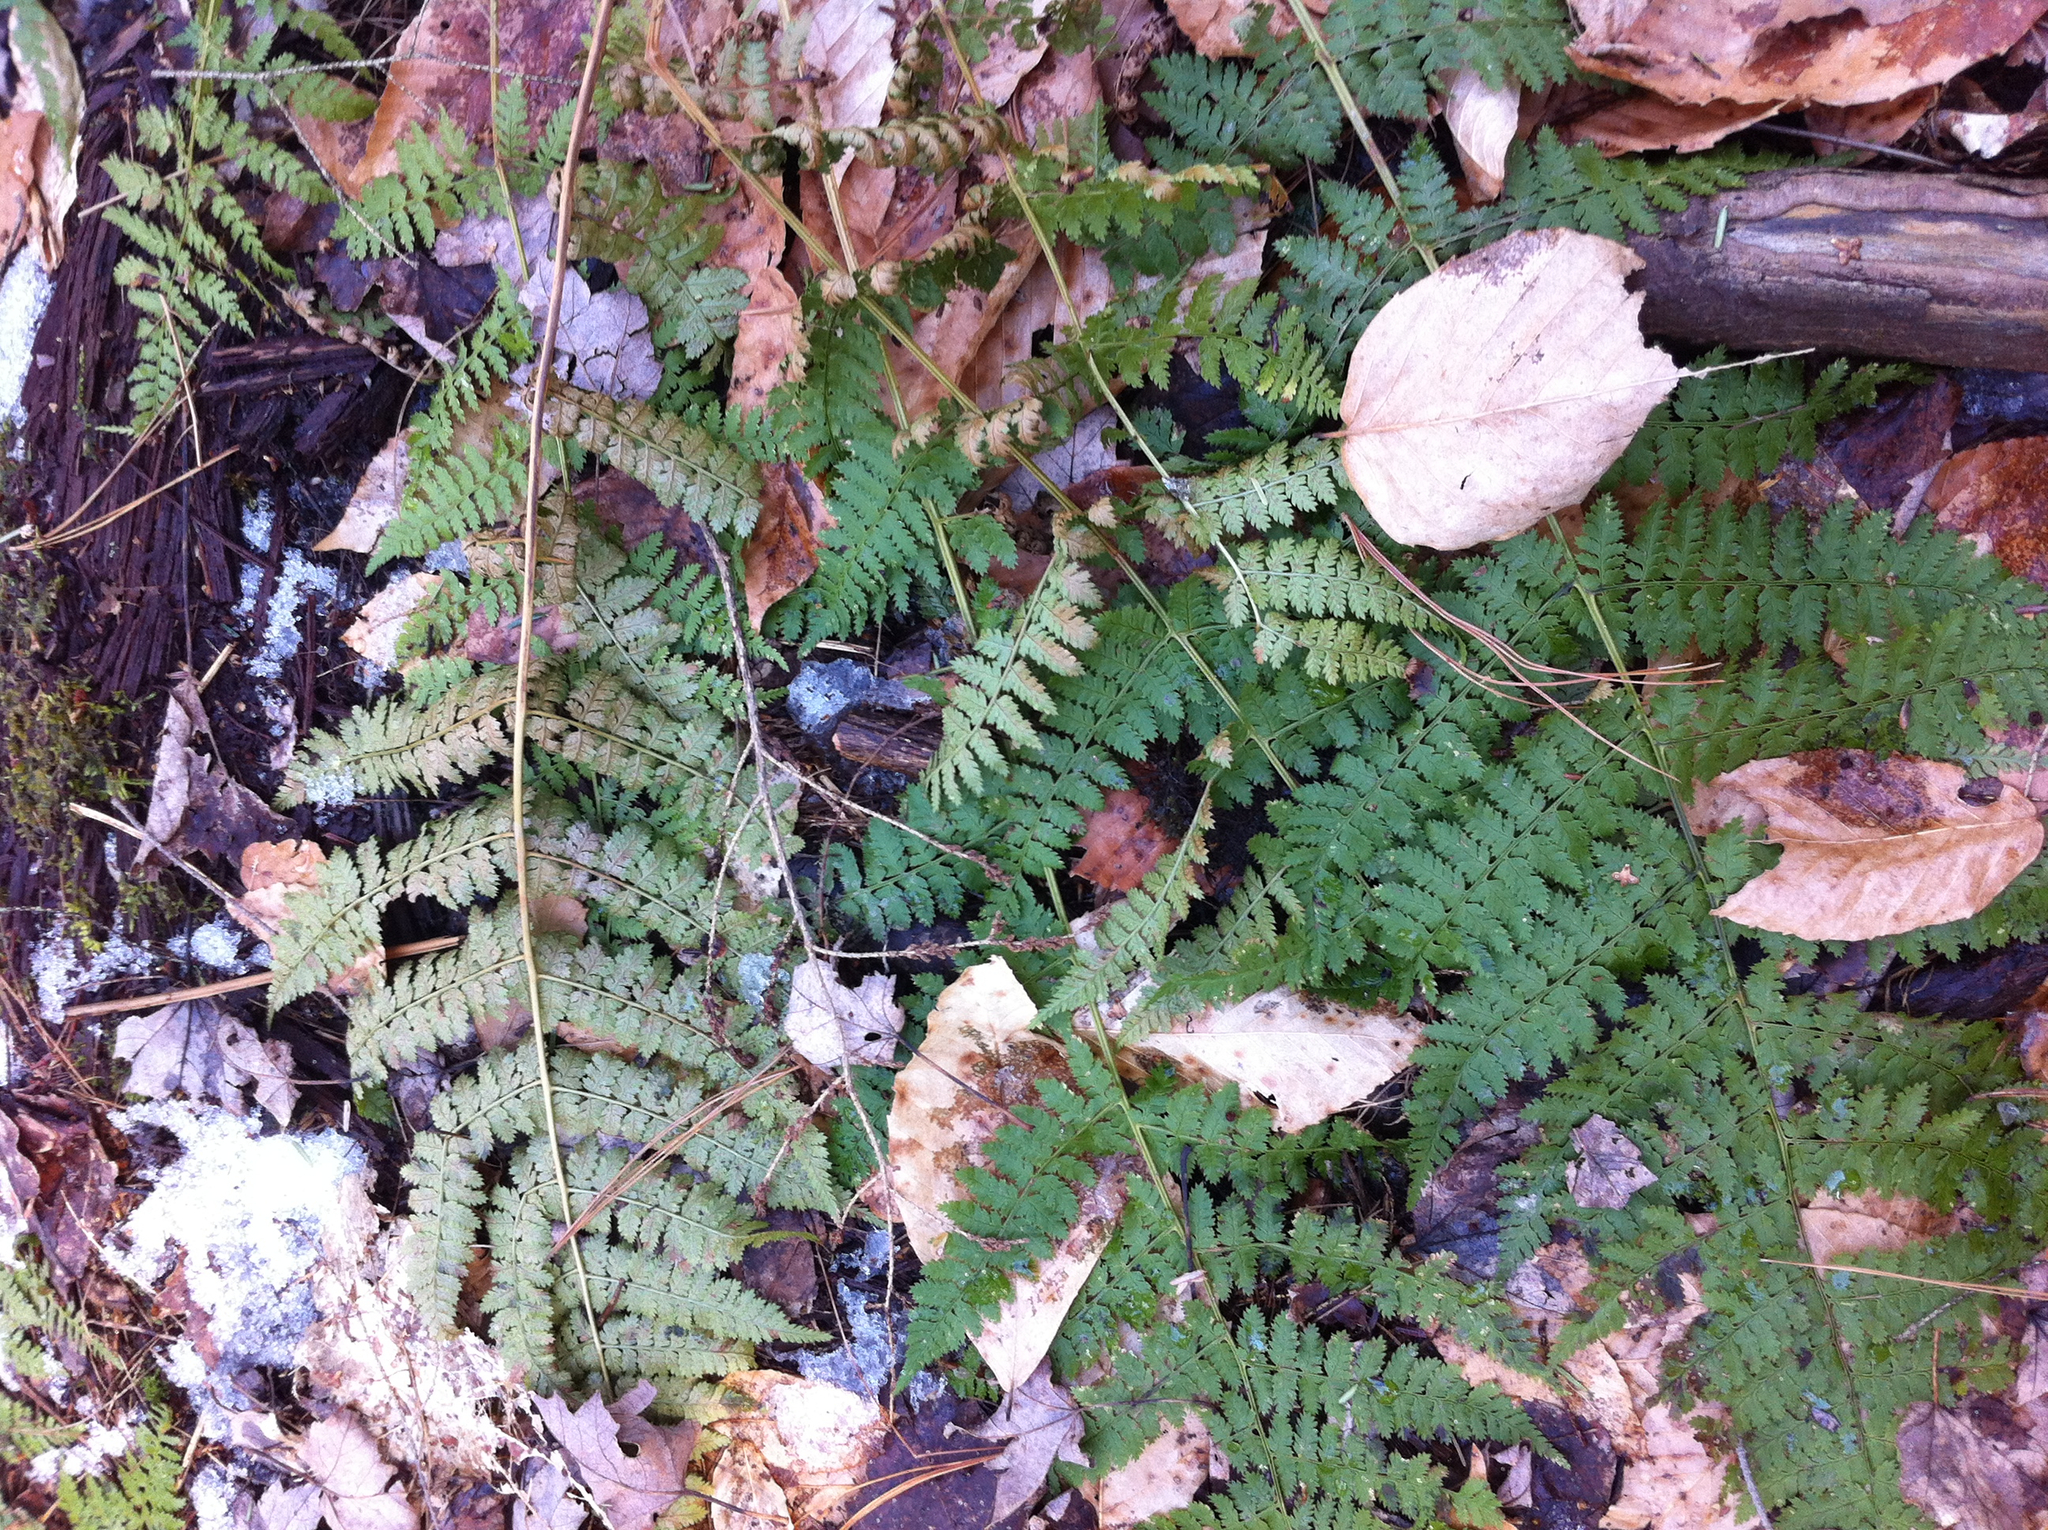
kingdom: Plantae
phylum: Tracheophyta
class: Polypodiopsida
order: Polypodiales
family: Dryopteridaceae
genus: Dryopteris
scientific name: Dryopteris intermedia
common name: Evergreen wood fern
